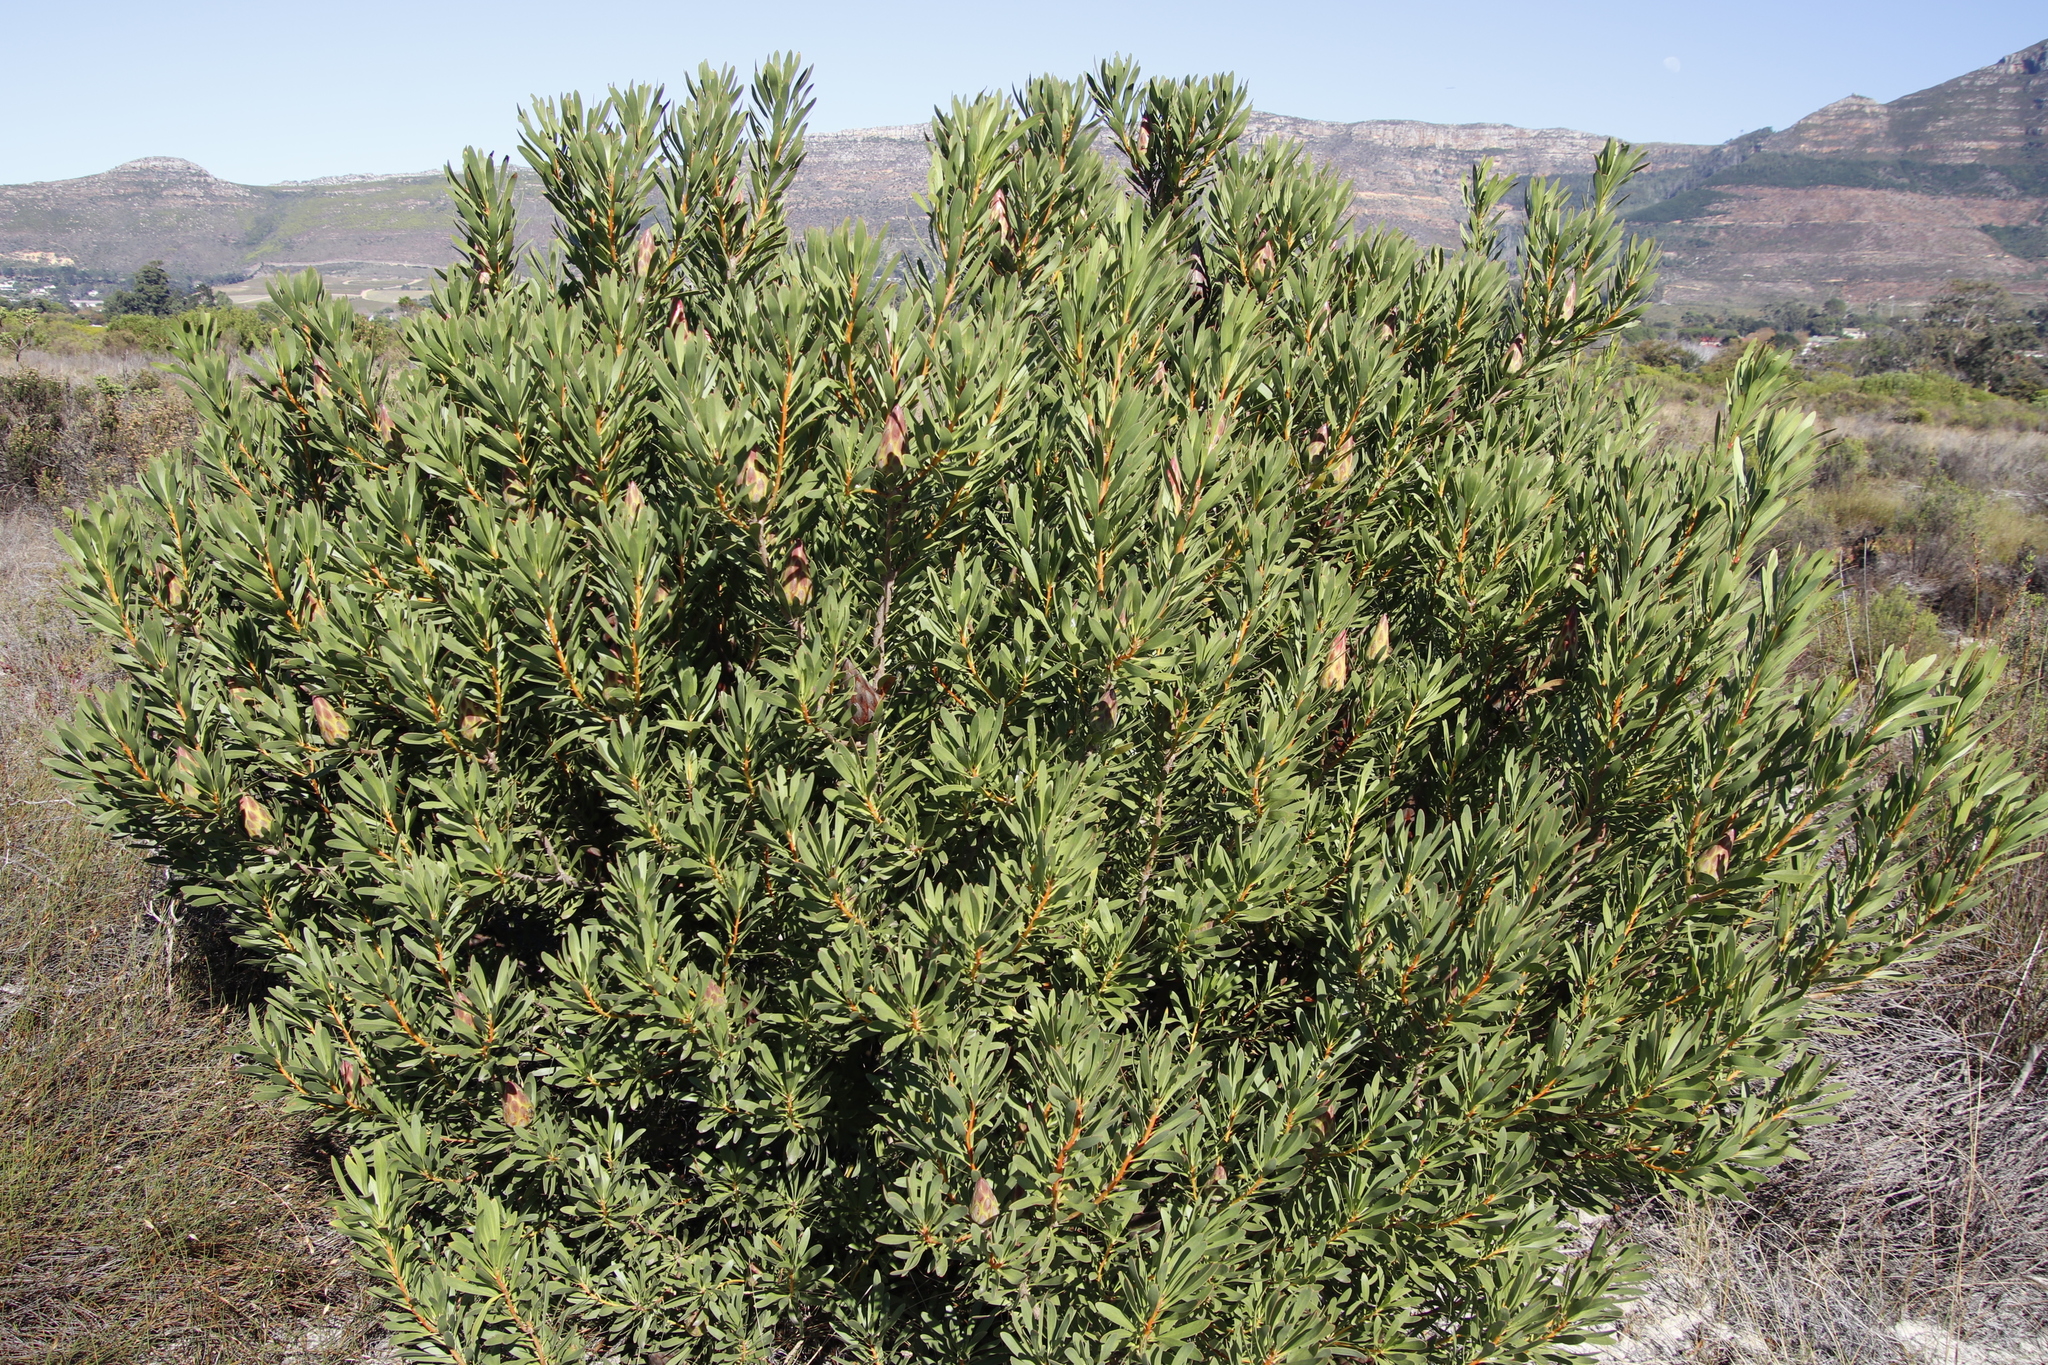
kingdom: Plantae
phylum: Tracheophyta
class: Magnoliopsida
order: Proteales
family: Proteaceae
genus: Protea
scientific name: Protea repens
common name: Sugarbush
